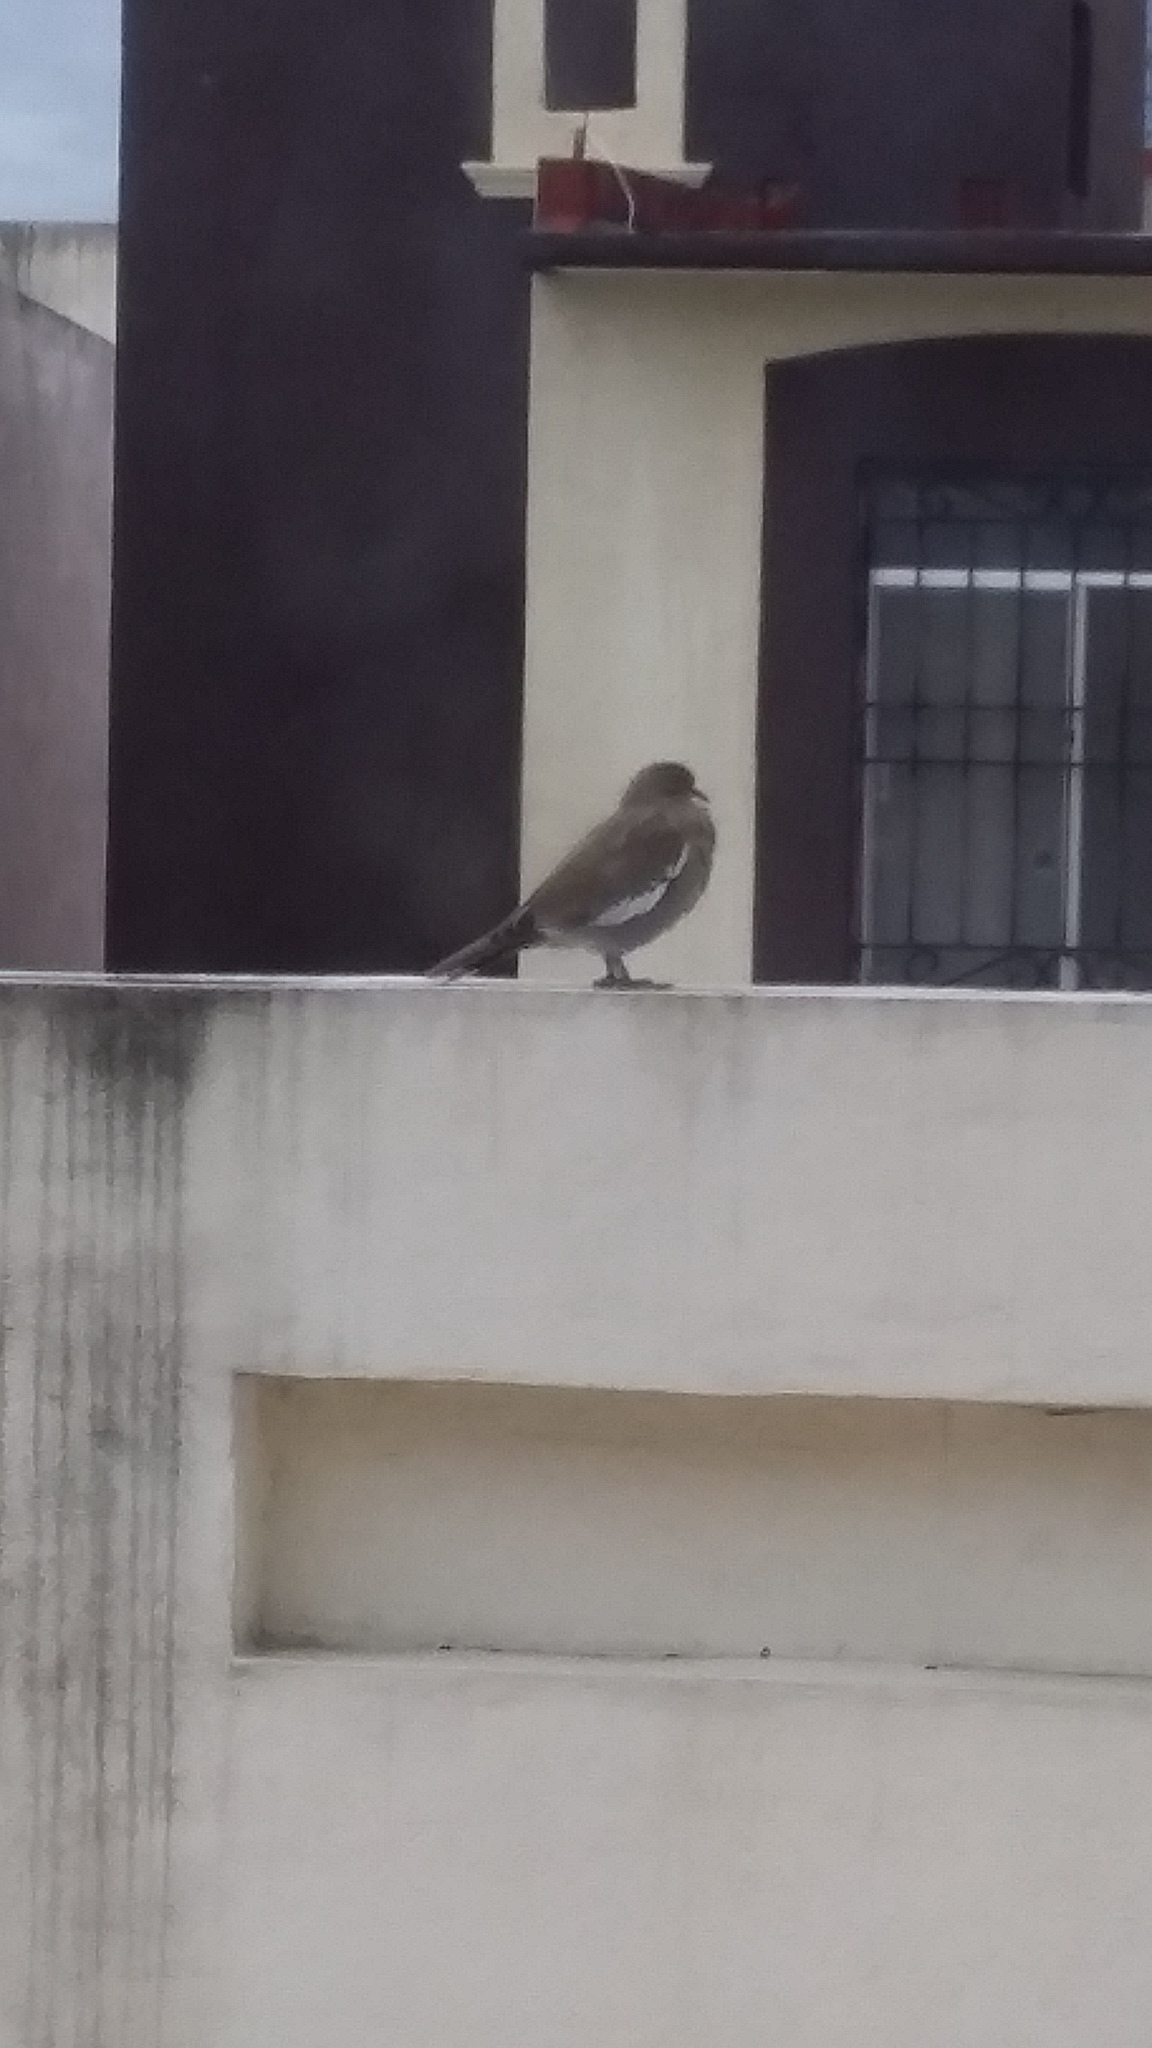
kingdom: Animalia
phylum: Chordata
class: Aves
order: Columbiformes
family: Columbidae
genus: Zenaida
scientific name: Zenaida asiatica
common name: White-winged dove
